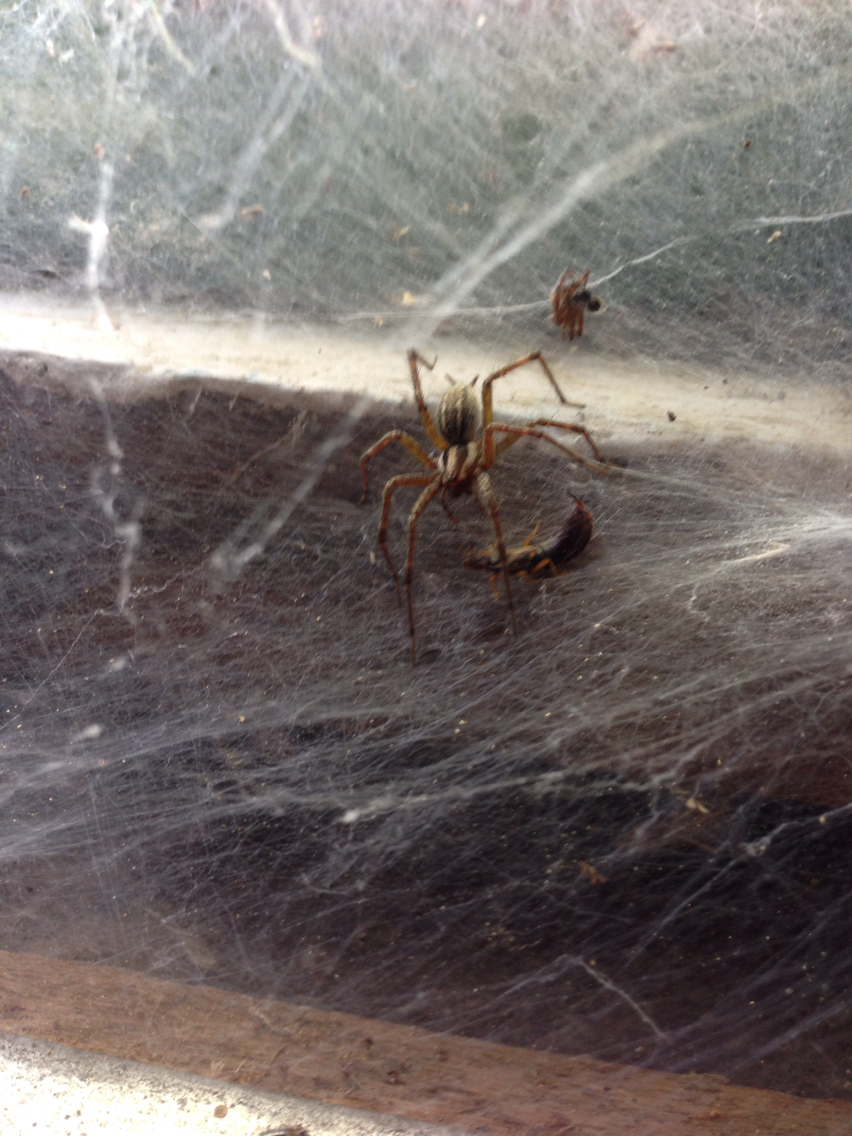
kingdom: Animalia
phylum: Arthropoda
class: Arachnida
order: Araneae
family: Agelenidae
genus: Agelenopsis
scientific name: Agelenopsis
